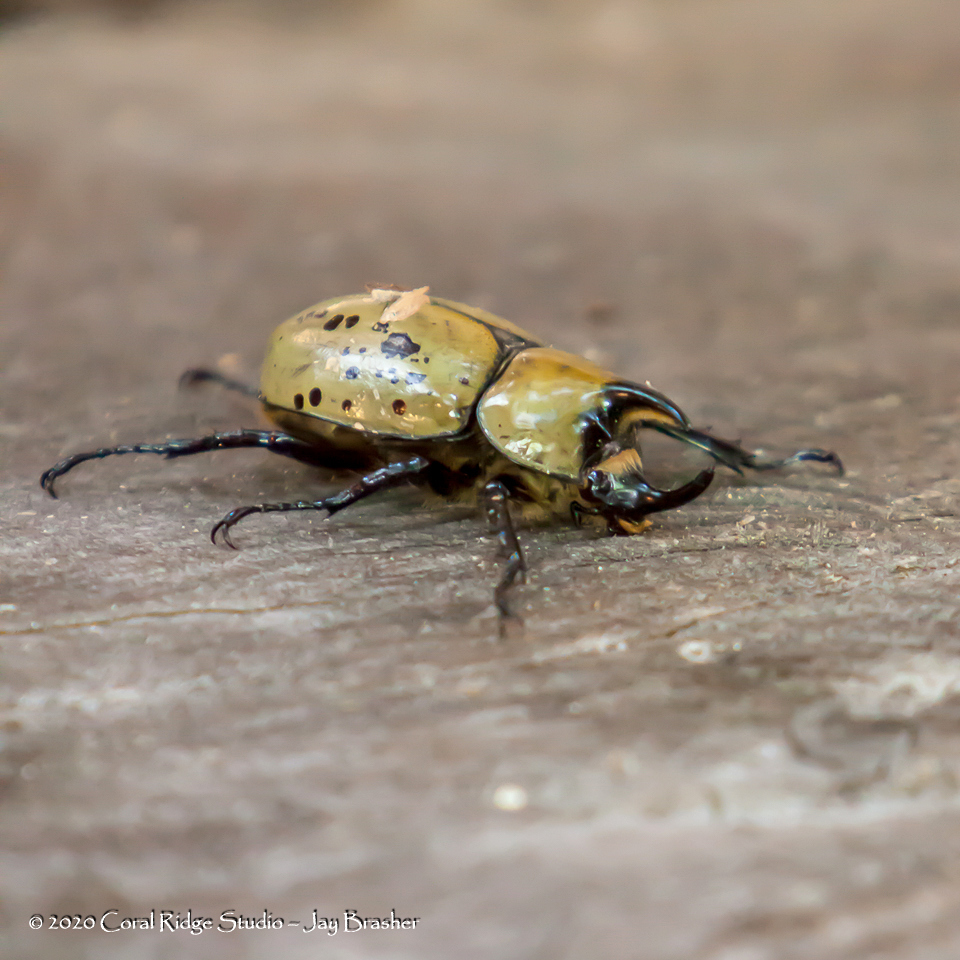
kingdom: Animalia
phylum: Arthropoda
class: Insecta
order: Coleoptera
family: Scarabaeidae
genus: Dynastes
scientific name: Dynastes tityus
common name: Eastern hercules beetle
